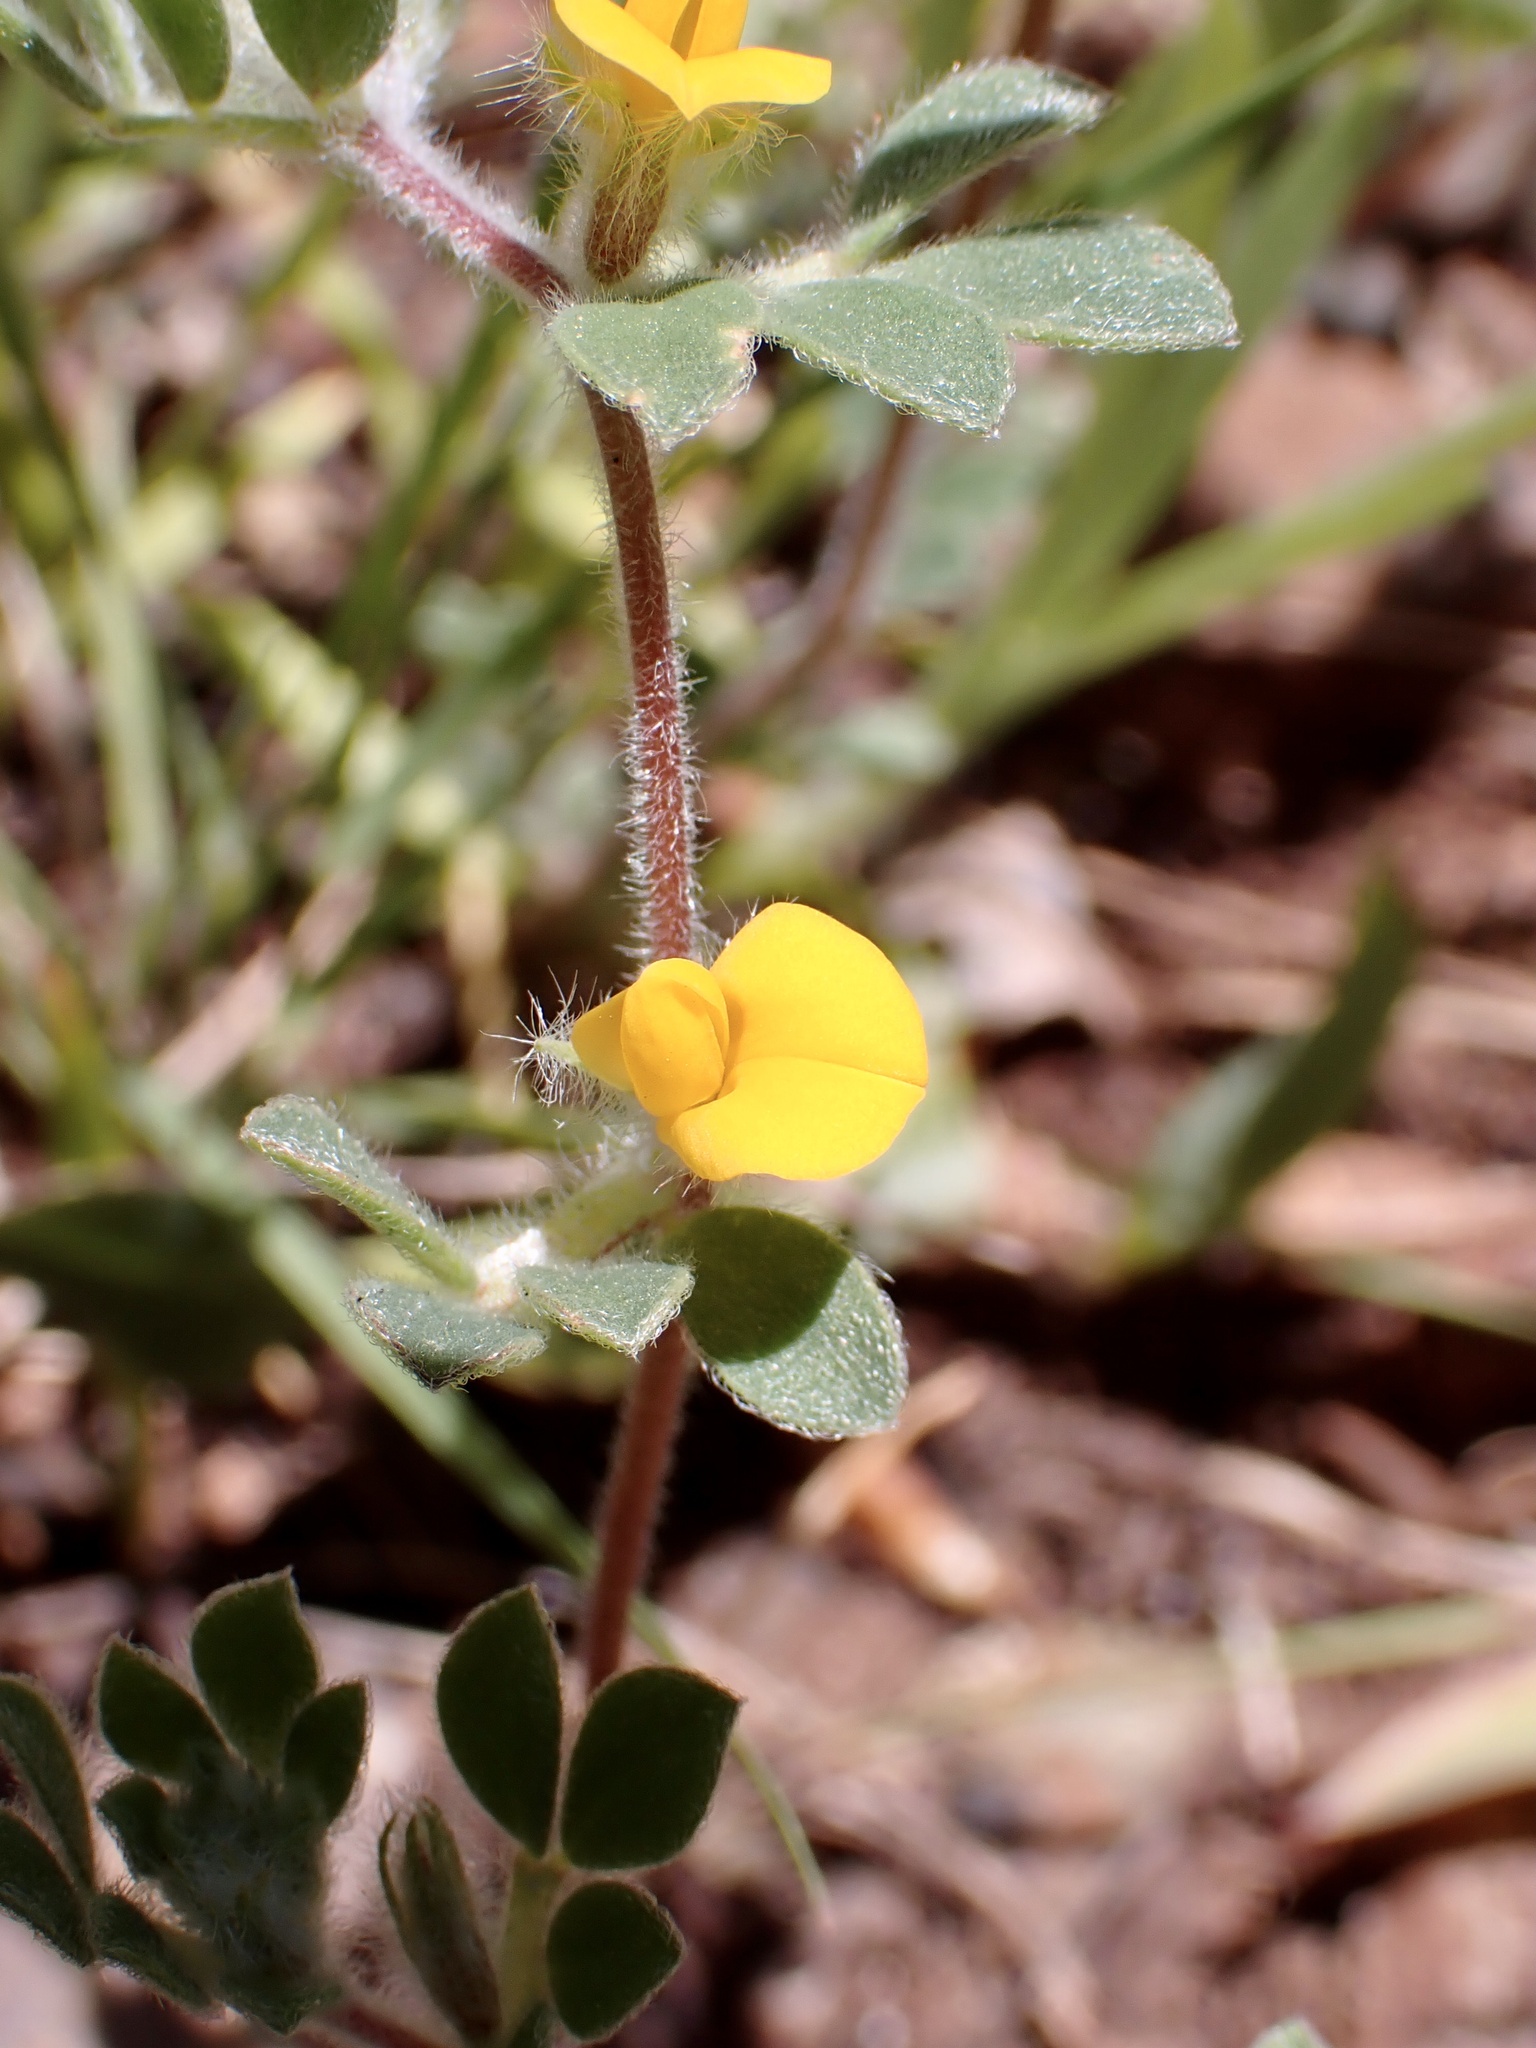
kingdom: Plantae
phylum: Tracheophyta
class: Magnoliopsida
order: Fabales
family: Fabaceae
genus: Acmispon
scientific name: Acmispon brachycarpus
